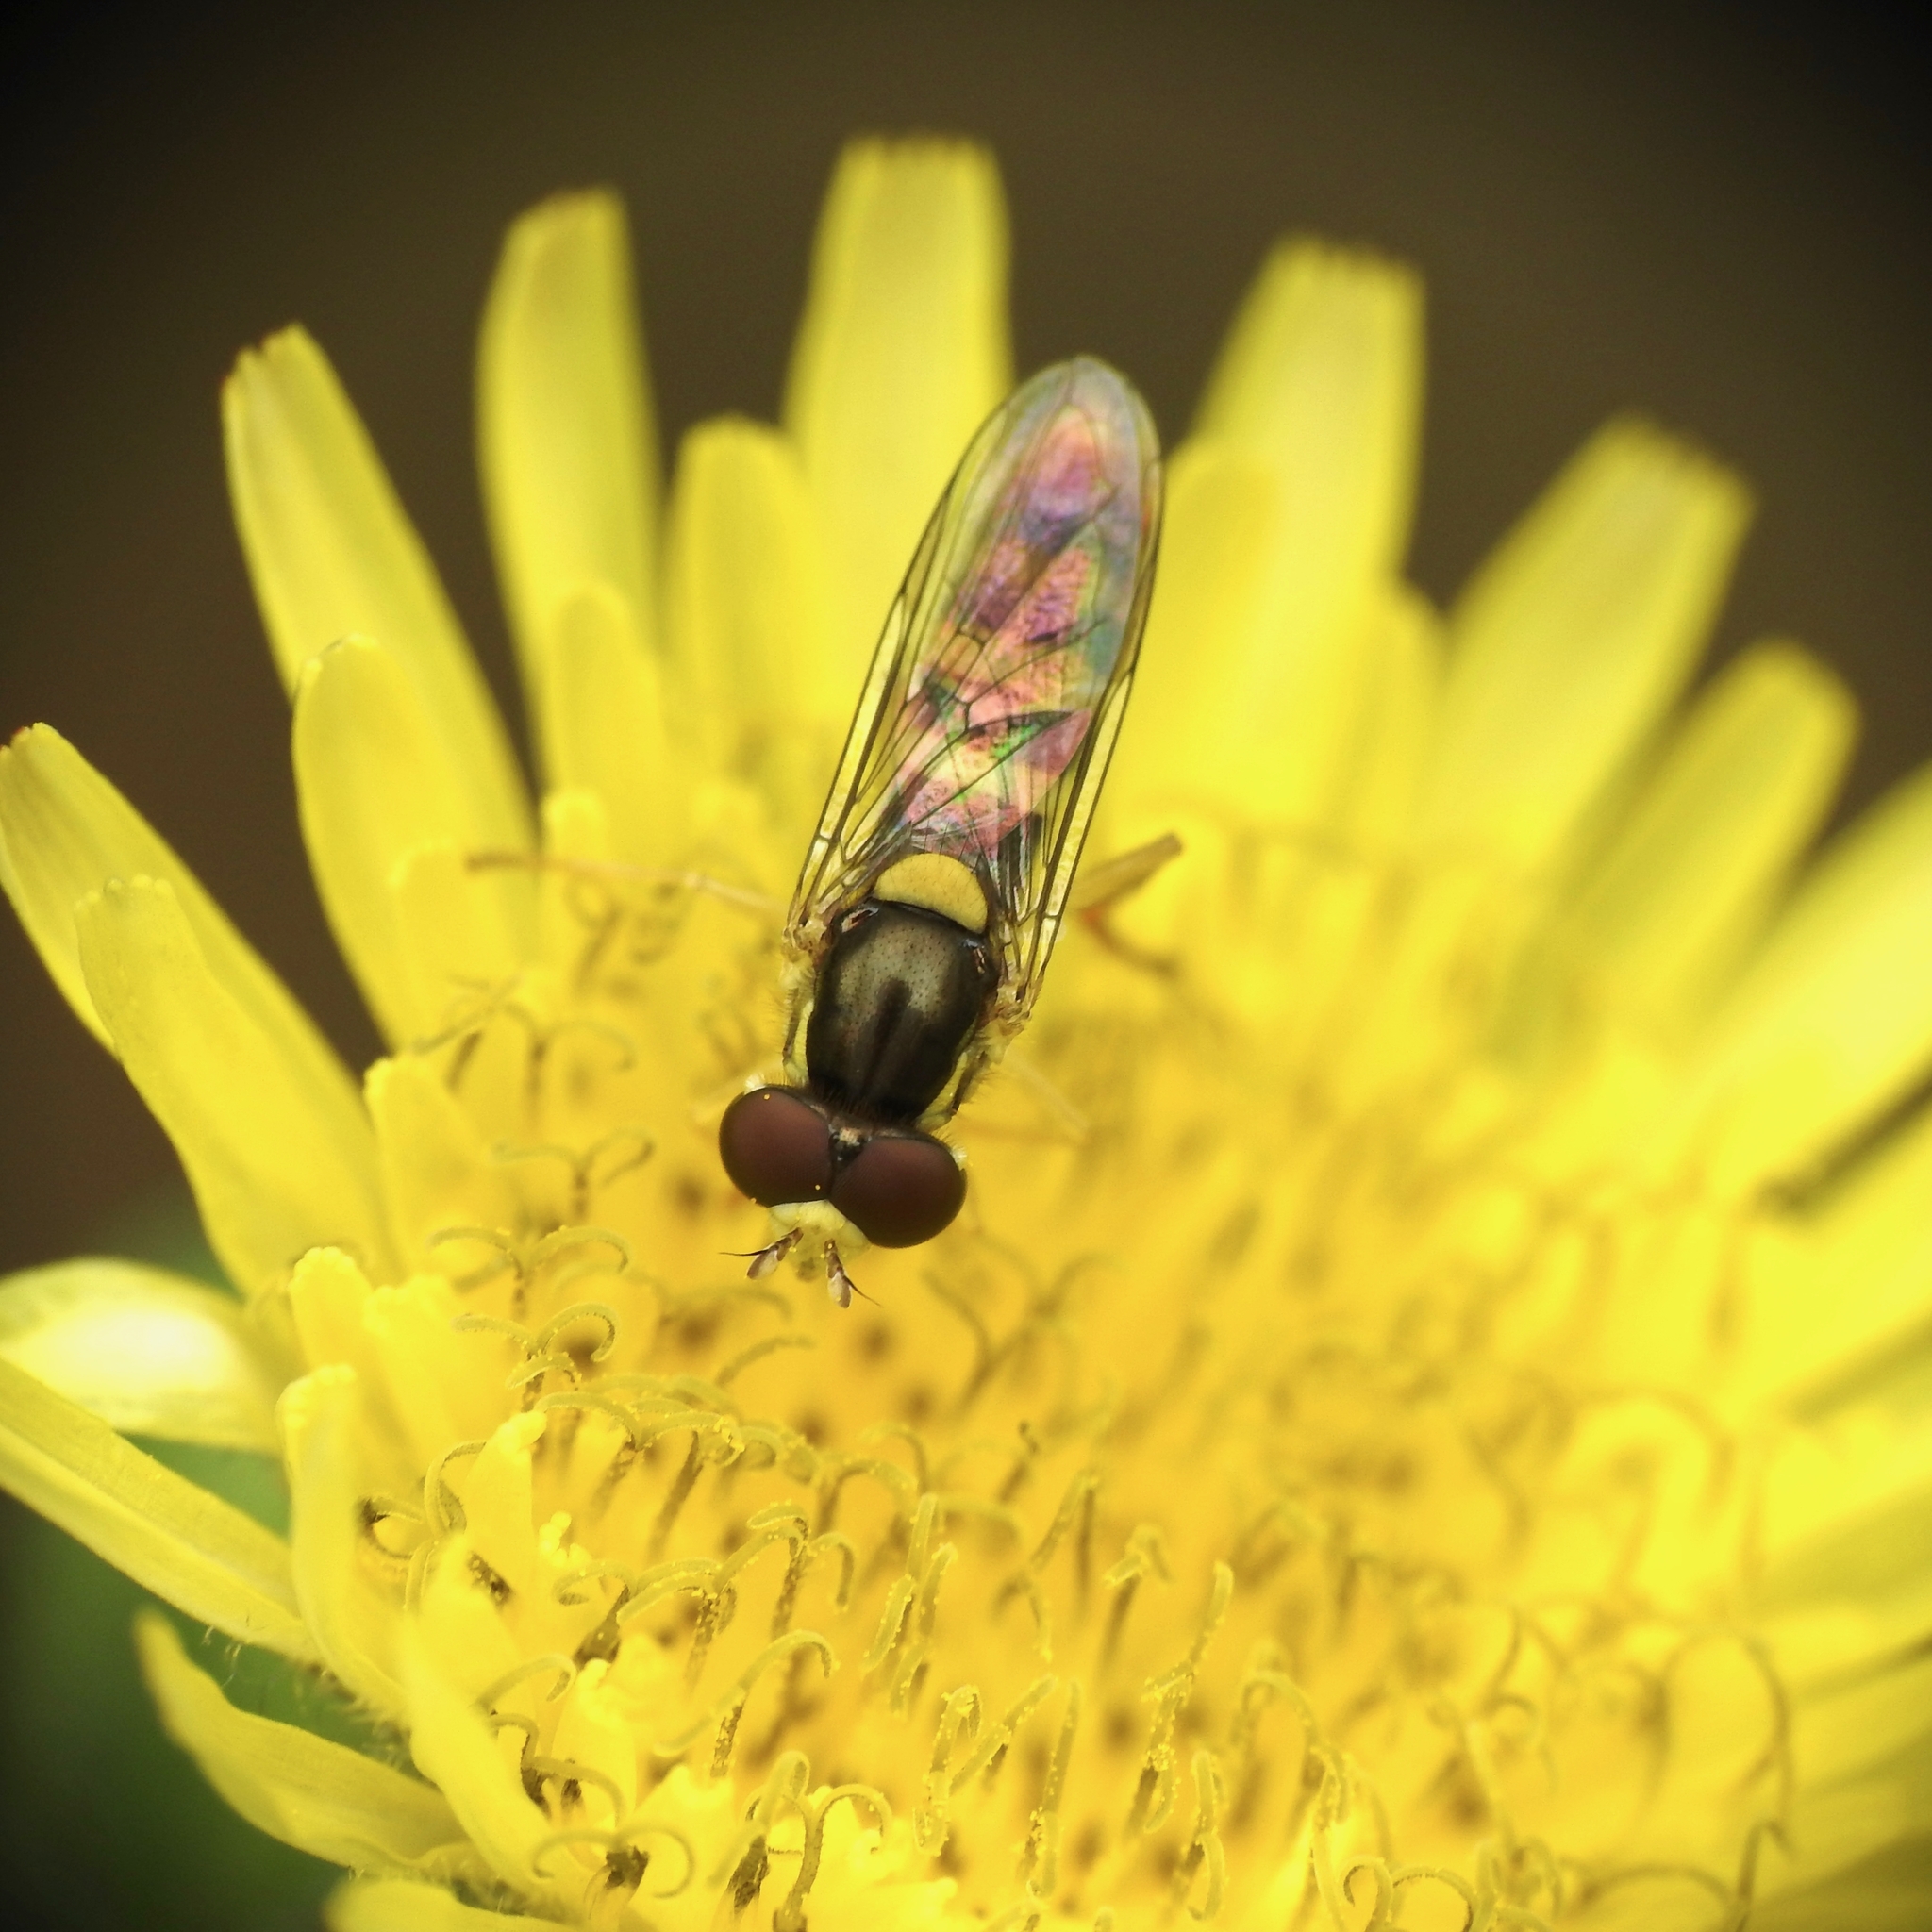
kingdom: Animalia
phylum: Arthropoda
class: Insecta
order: Diptera
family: Syrphidae
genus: Sphaerophoria
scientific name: Sphaerophoria sulphuripes
